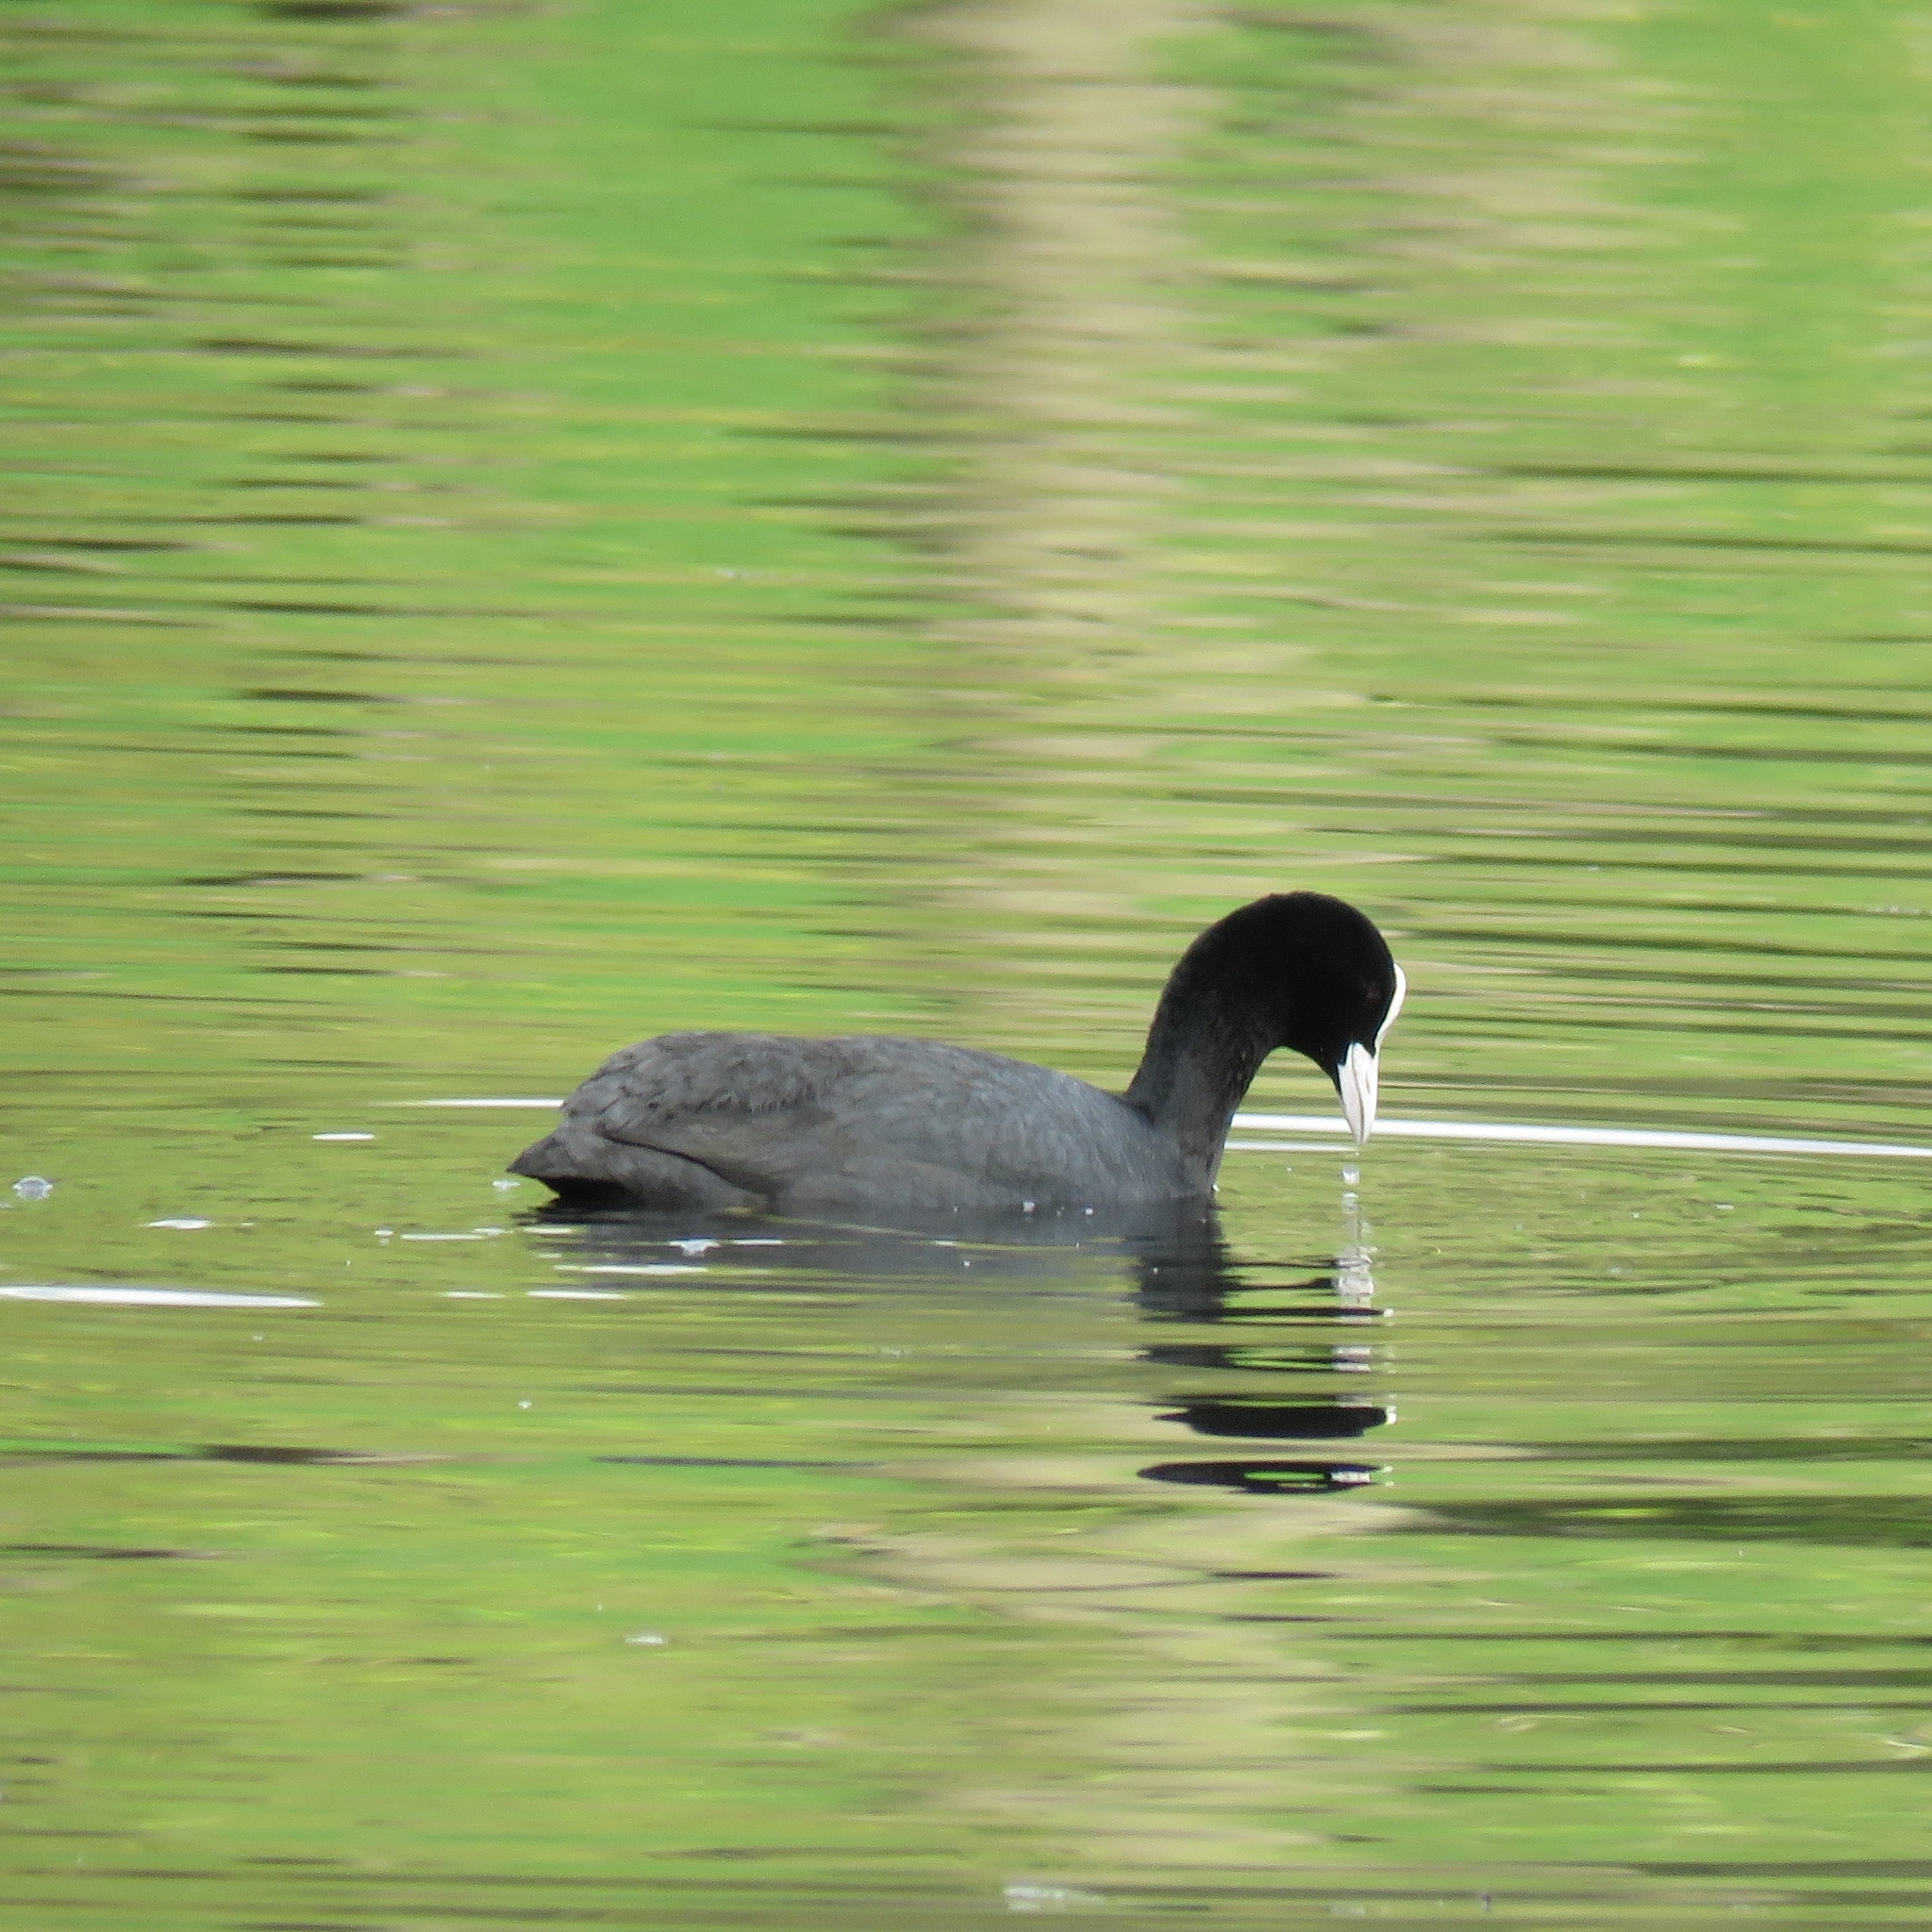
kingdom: Animalia
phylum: Chordata
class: Aves
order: Gruiformes
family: Rallidae
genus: Fulica
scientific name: Fulica atra
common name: Eurasian coot
